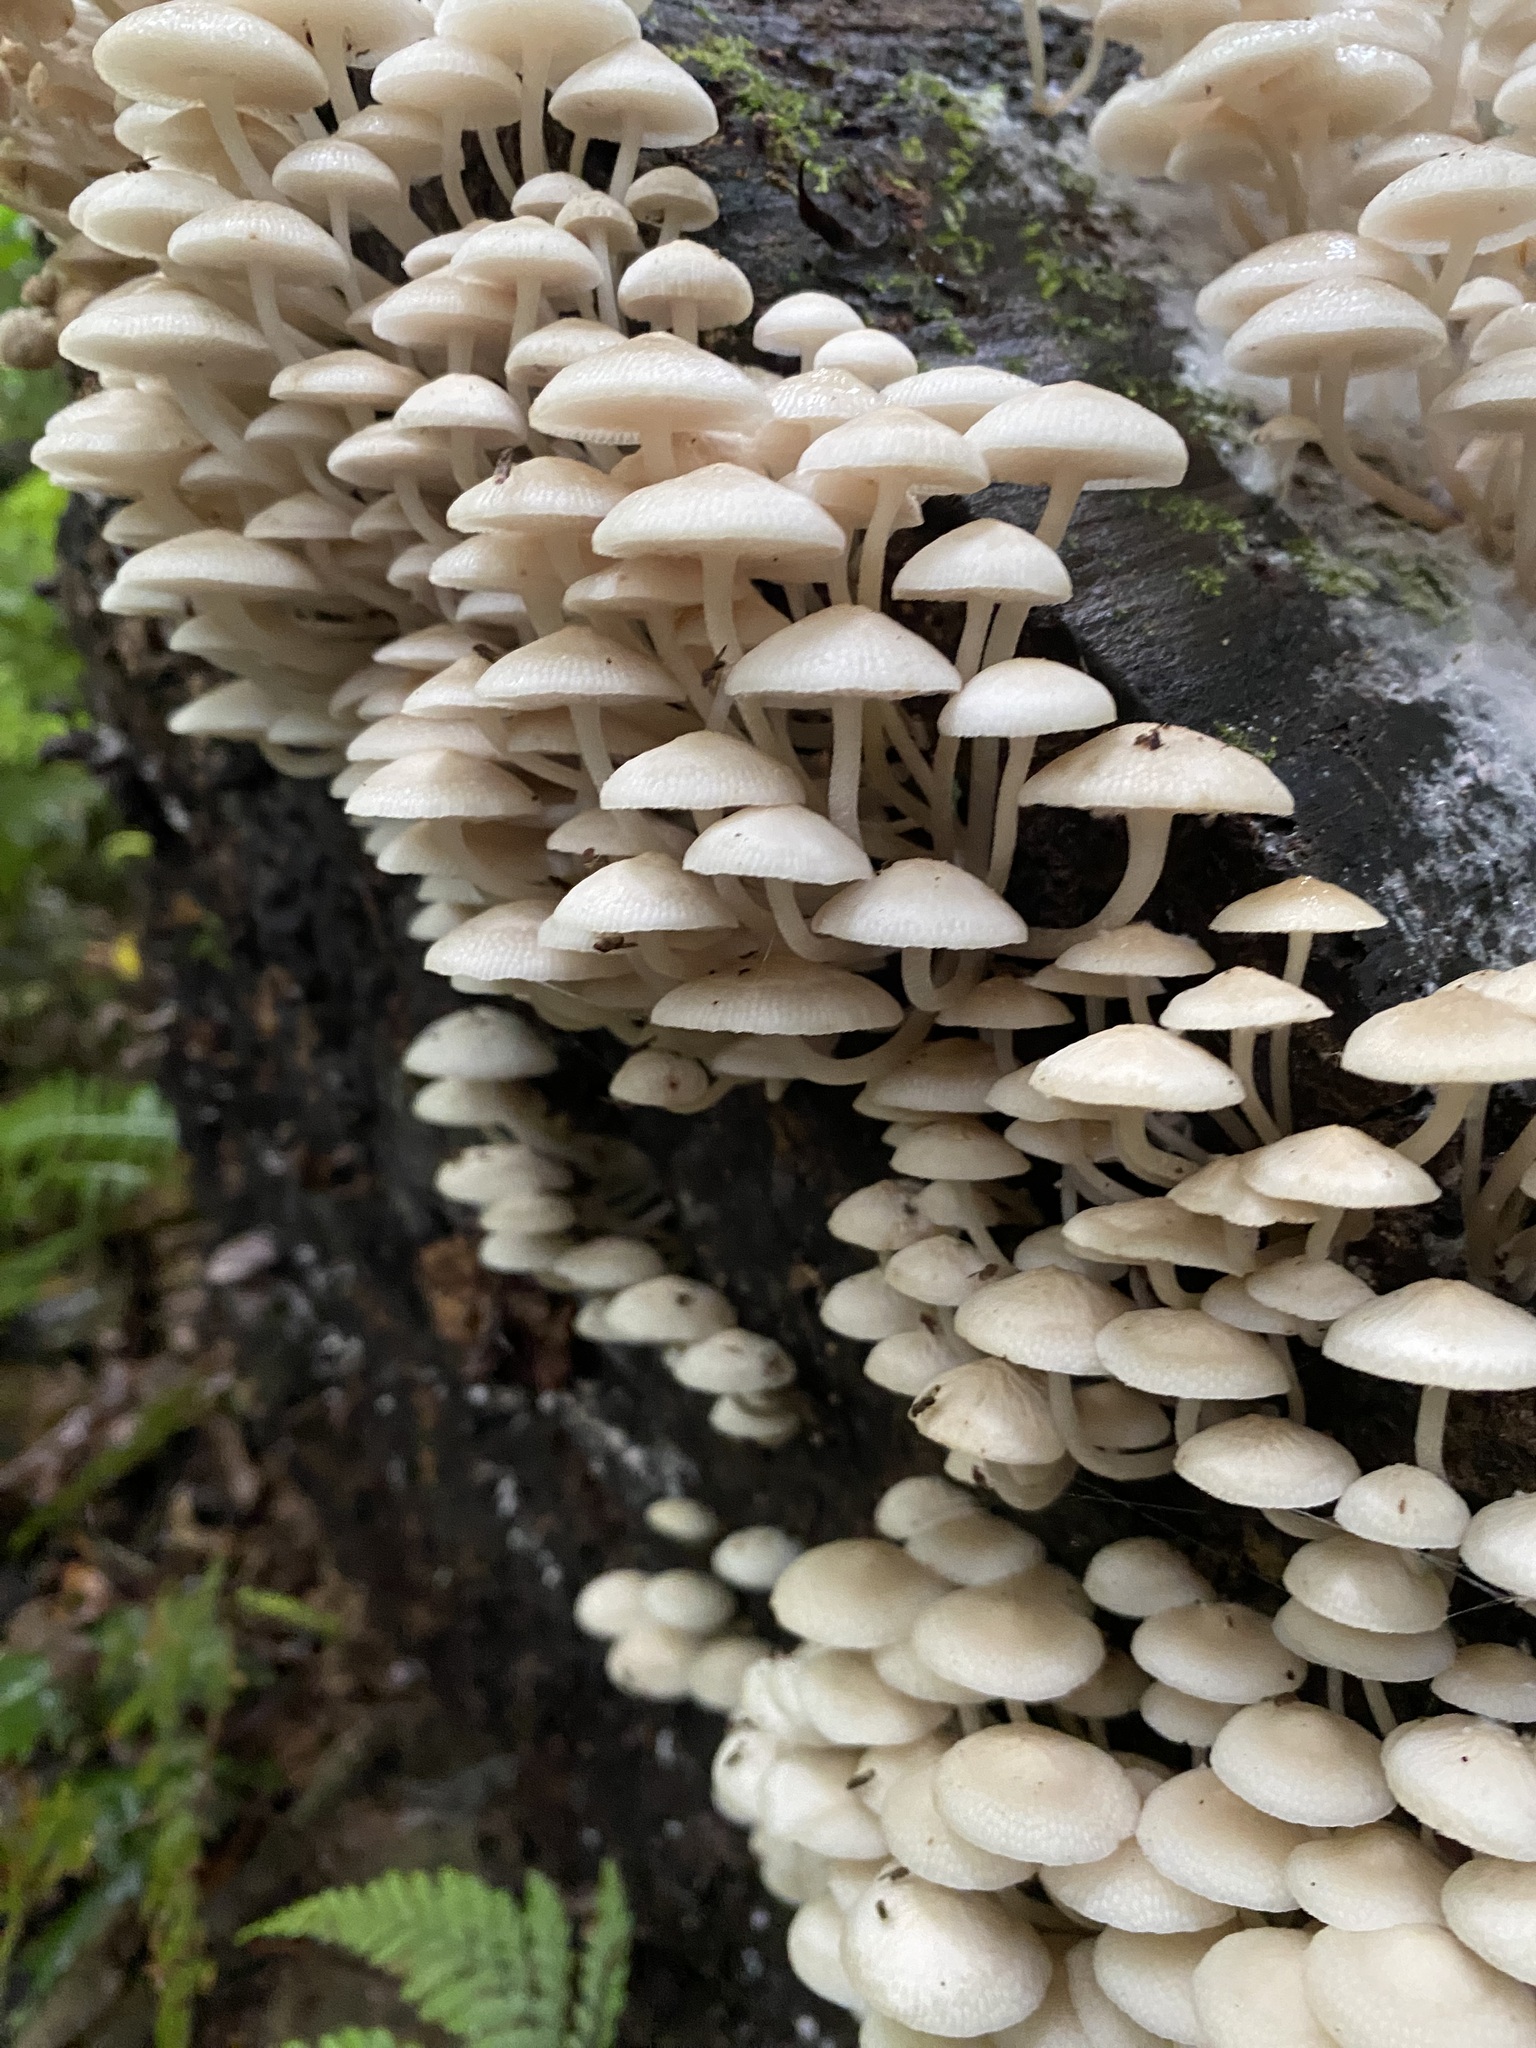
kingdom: Fungi
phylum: Basidiomycota
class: Agaricomycetes
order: Agaricales
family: Mycenaceae
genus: Filoboletus
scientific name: Filoboletus manipularis
